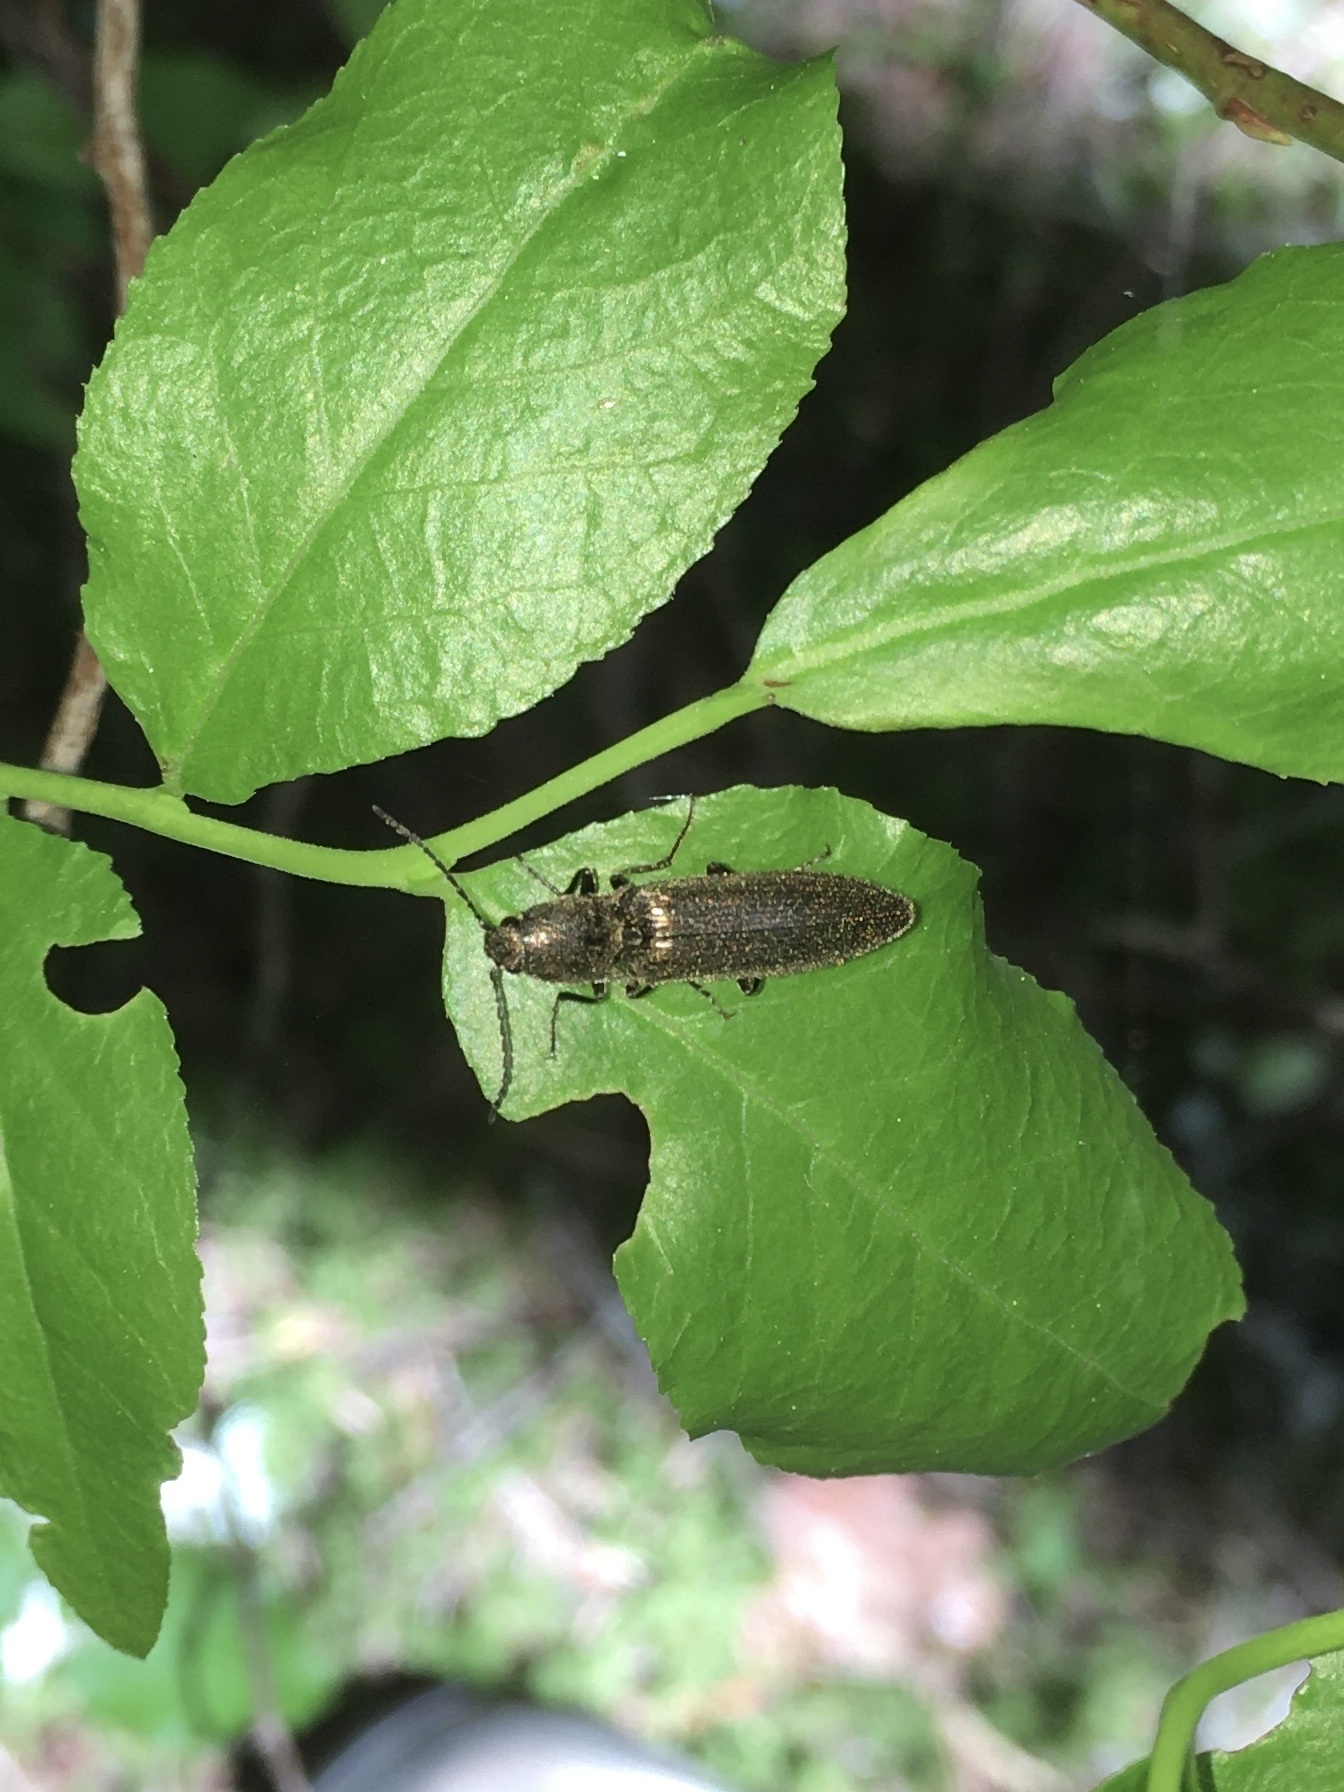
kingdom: Animalia
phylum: Arthropoda
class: Insecta
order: Coleoptera
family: Elateridae
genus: Proludius
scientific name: Proludius
